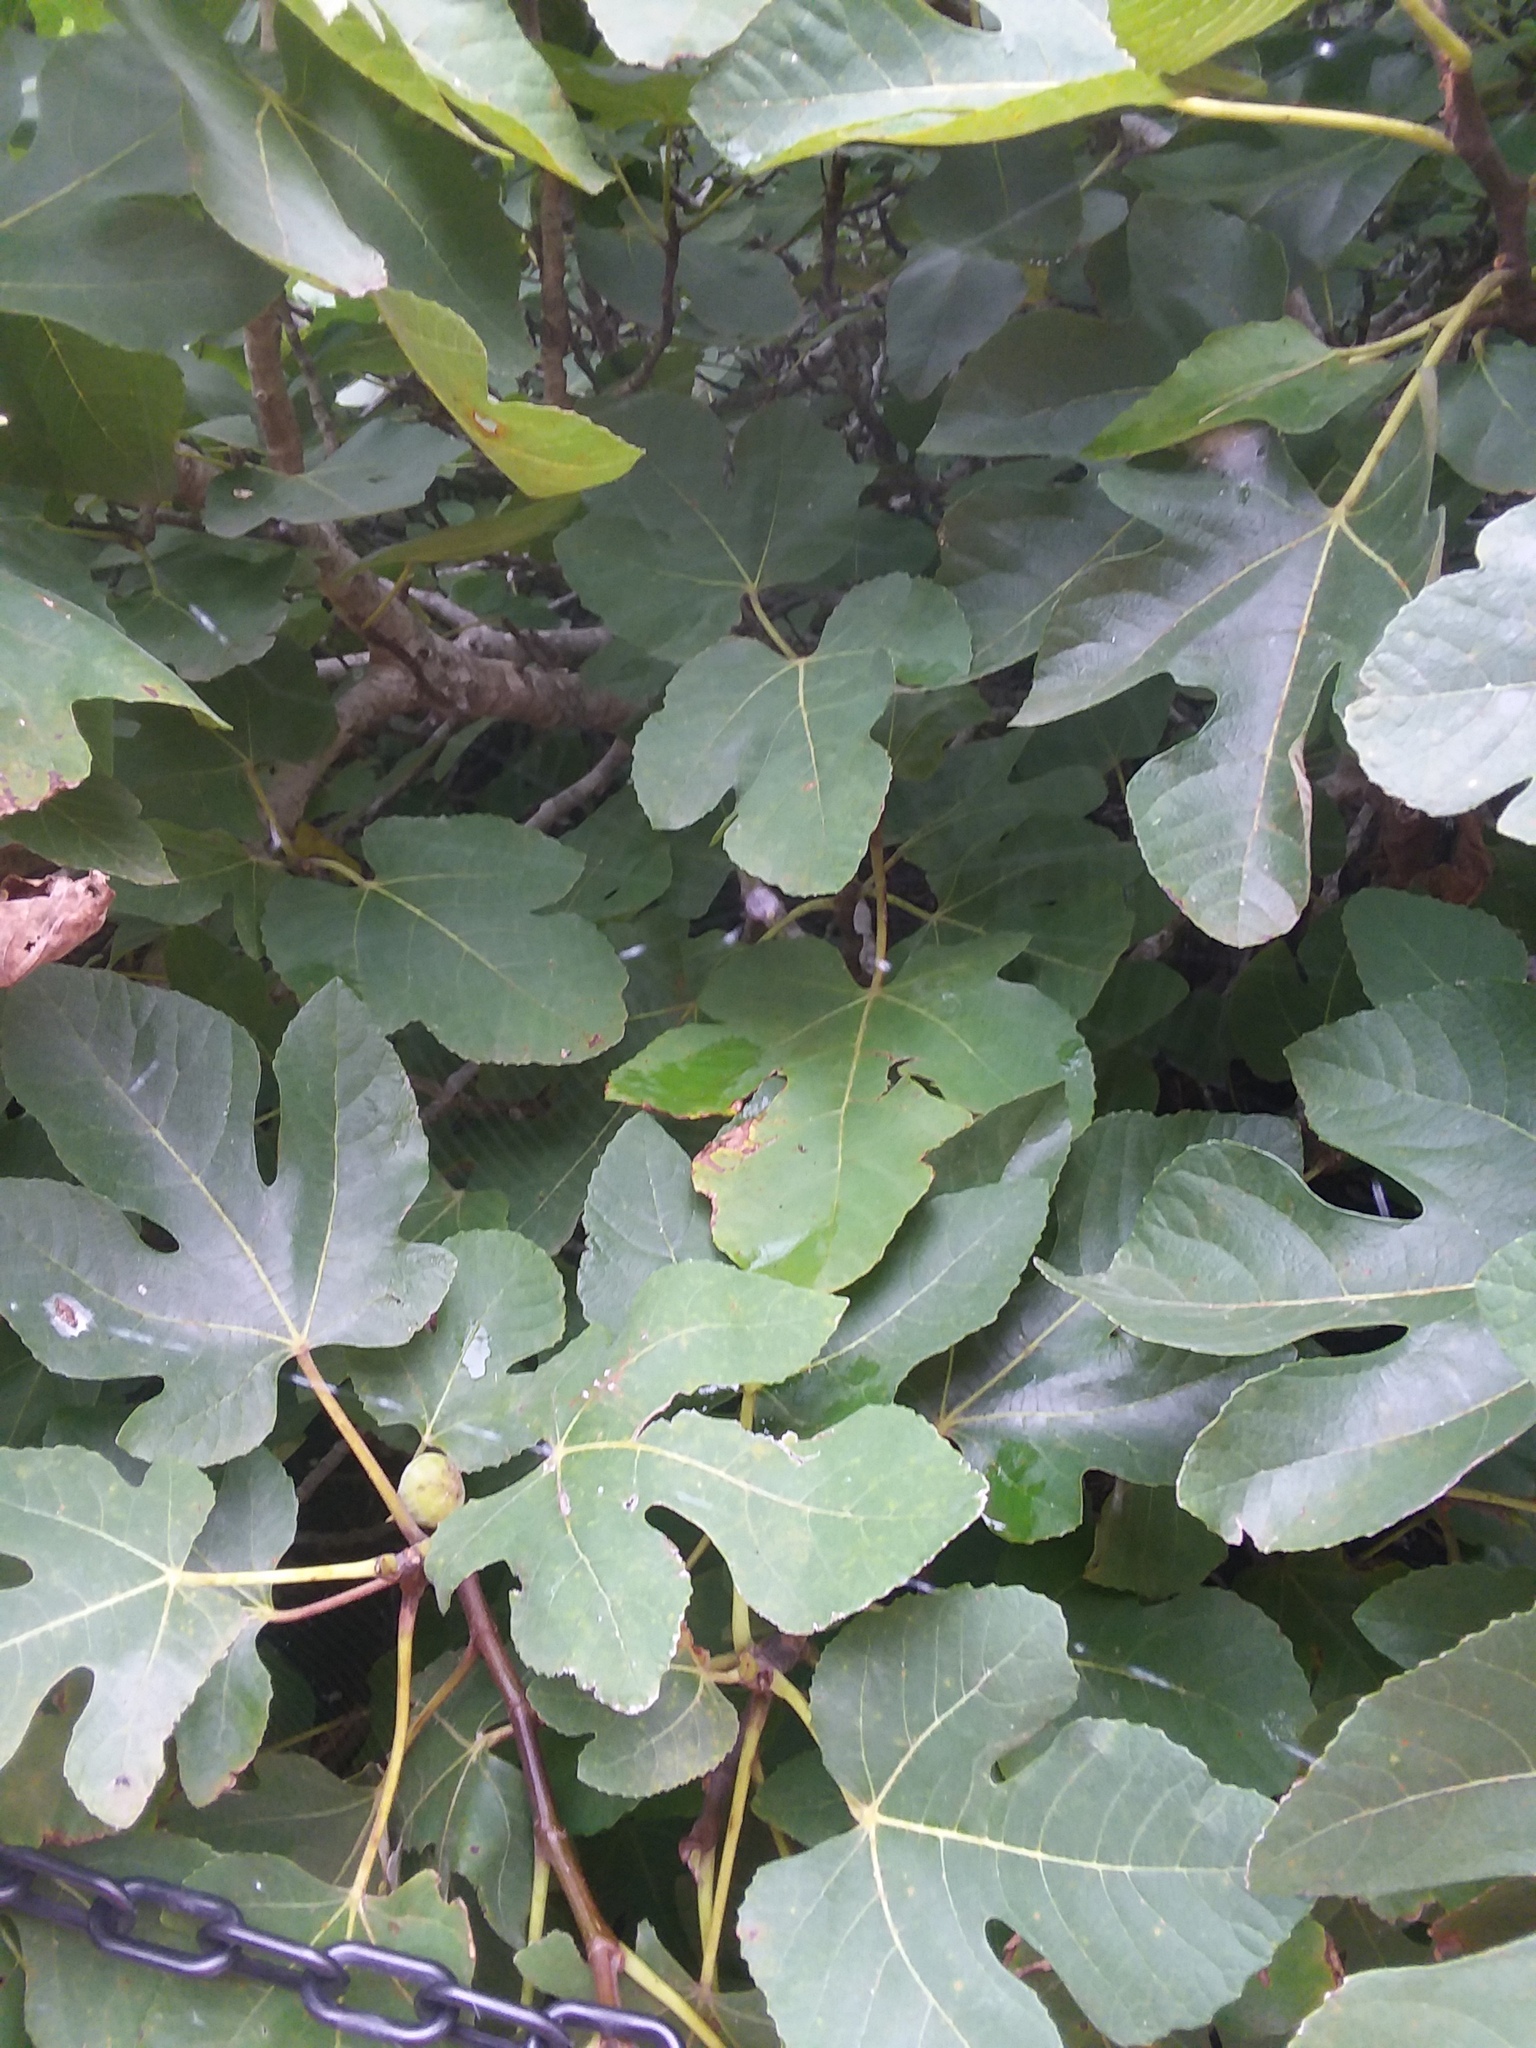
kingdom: Plantae
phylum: Tracheophyta
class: Magnoliopsida
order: Rosales
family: Moraceae
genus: Ficus
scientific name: Ficus carica
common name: Fig
